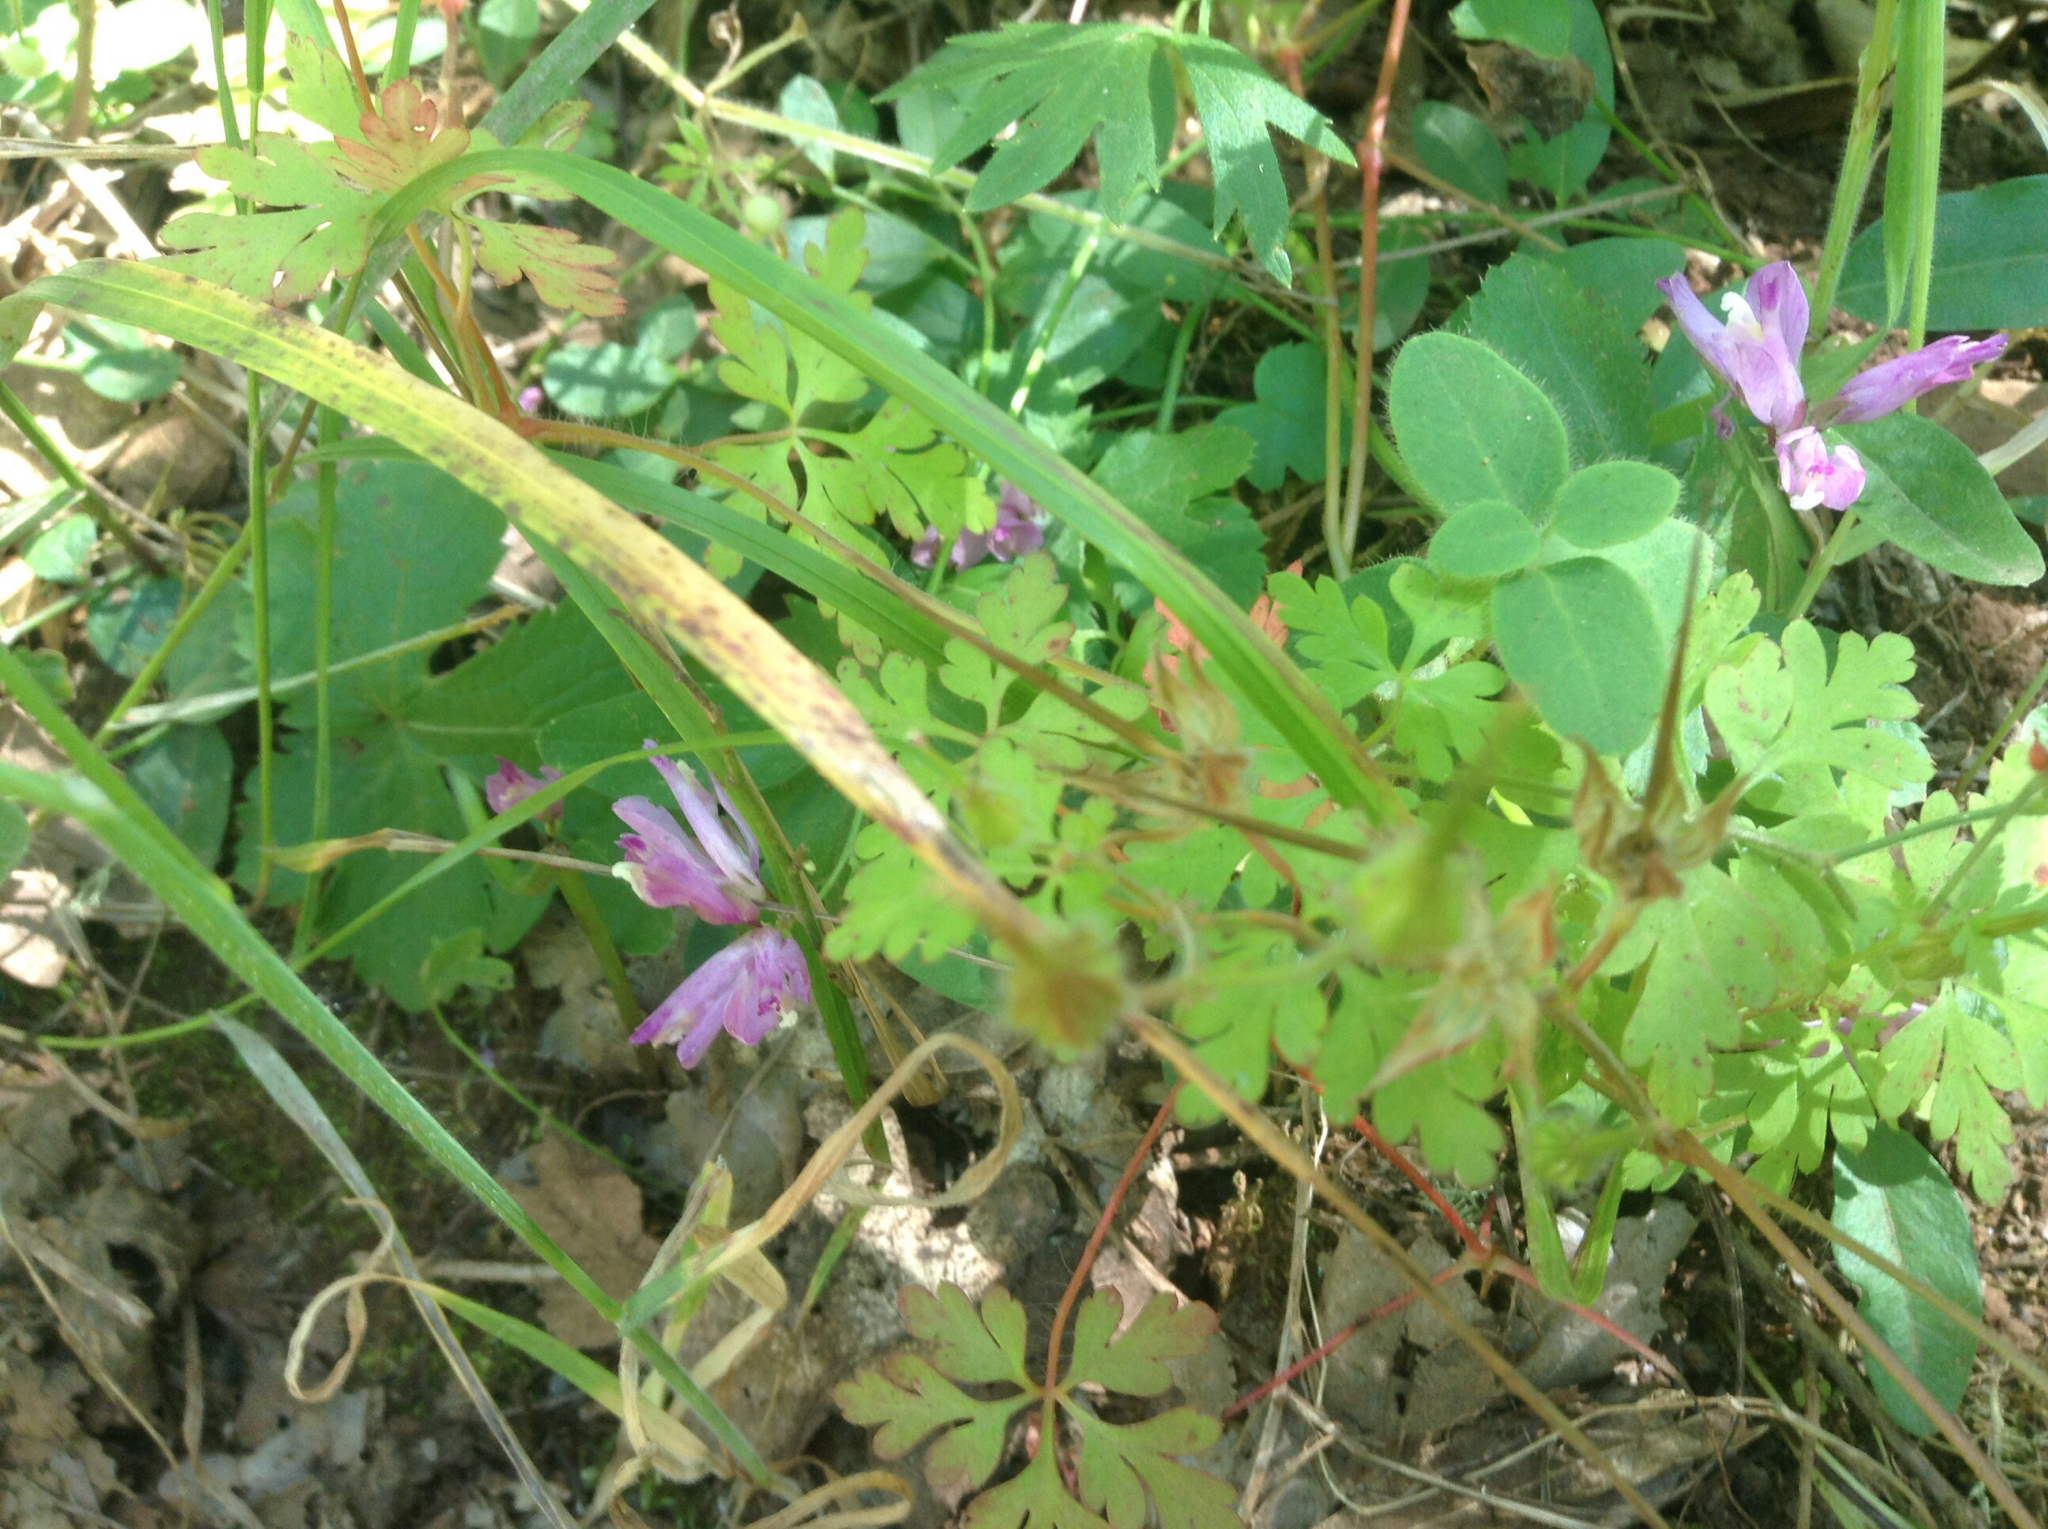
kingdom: Plantae
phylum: Tracheophyta
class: Magnoliopsida
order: Fabales
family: Polygalaceae
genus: Rhinotropis
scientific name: Rhinotropis californica
